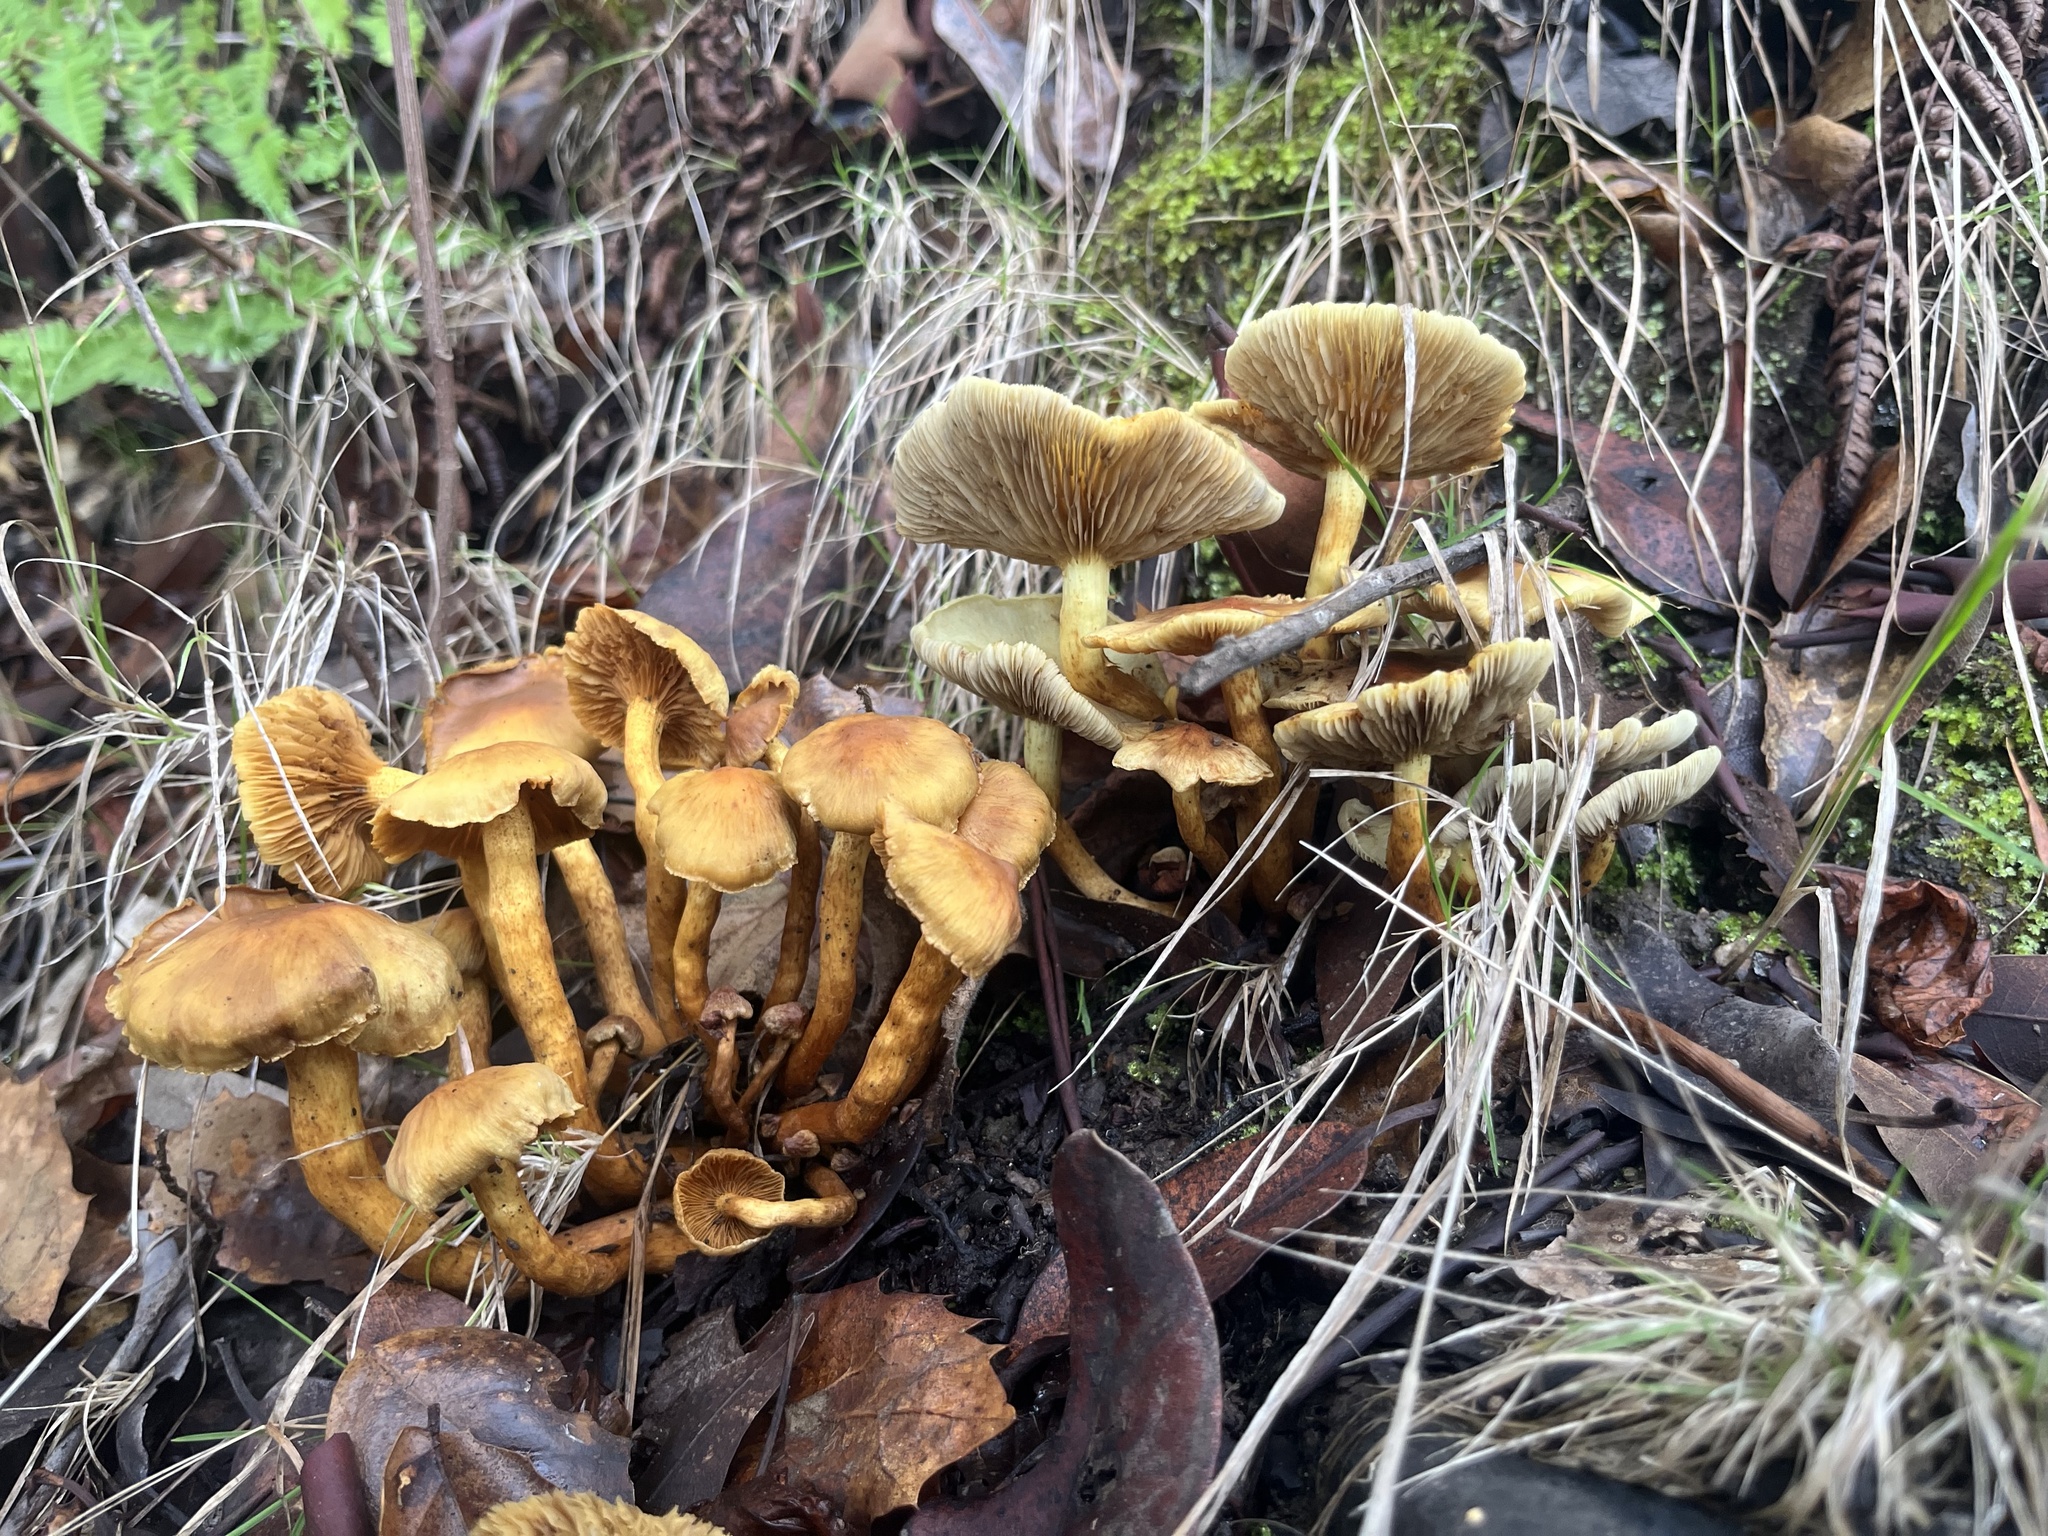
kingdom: Fungi
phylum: Basidiomycota
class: Agaricomycetes
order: Agaricales
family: Strophariaceae
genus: Hypholoma
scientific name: Hypholoma fasciculare
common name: Sulphur tuft
